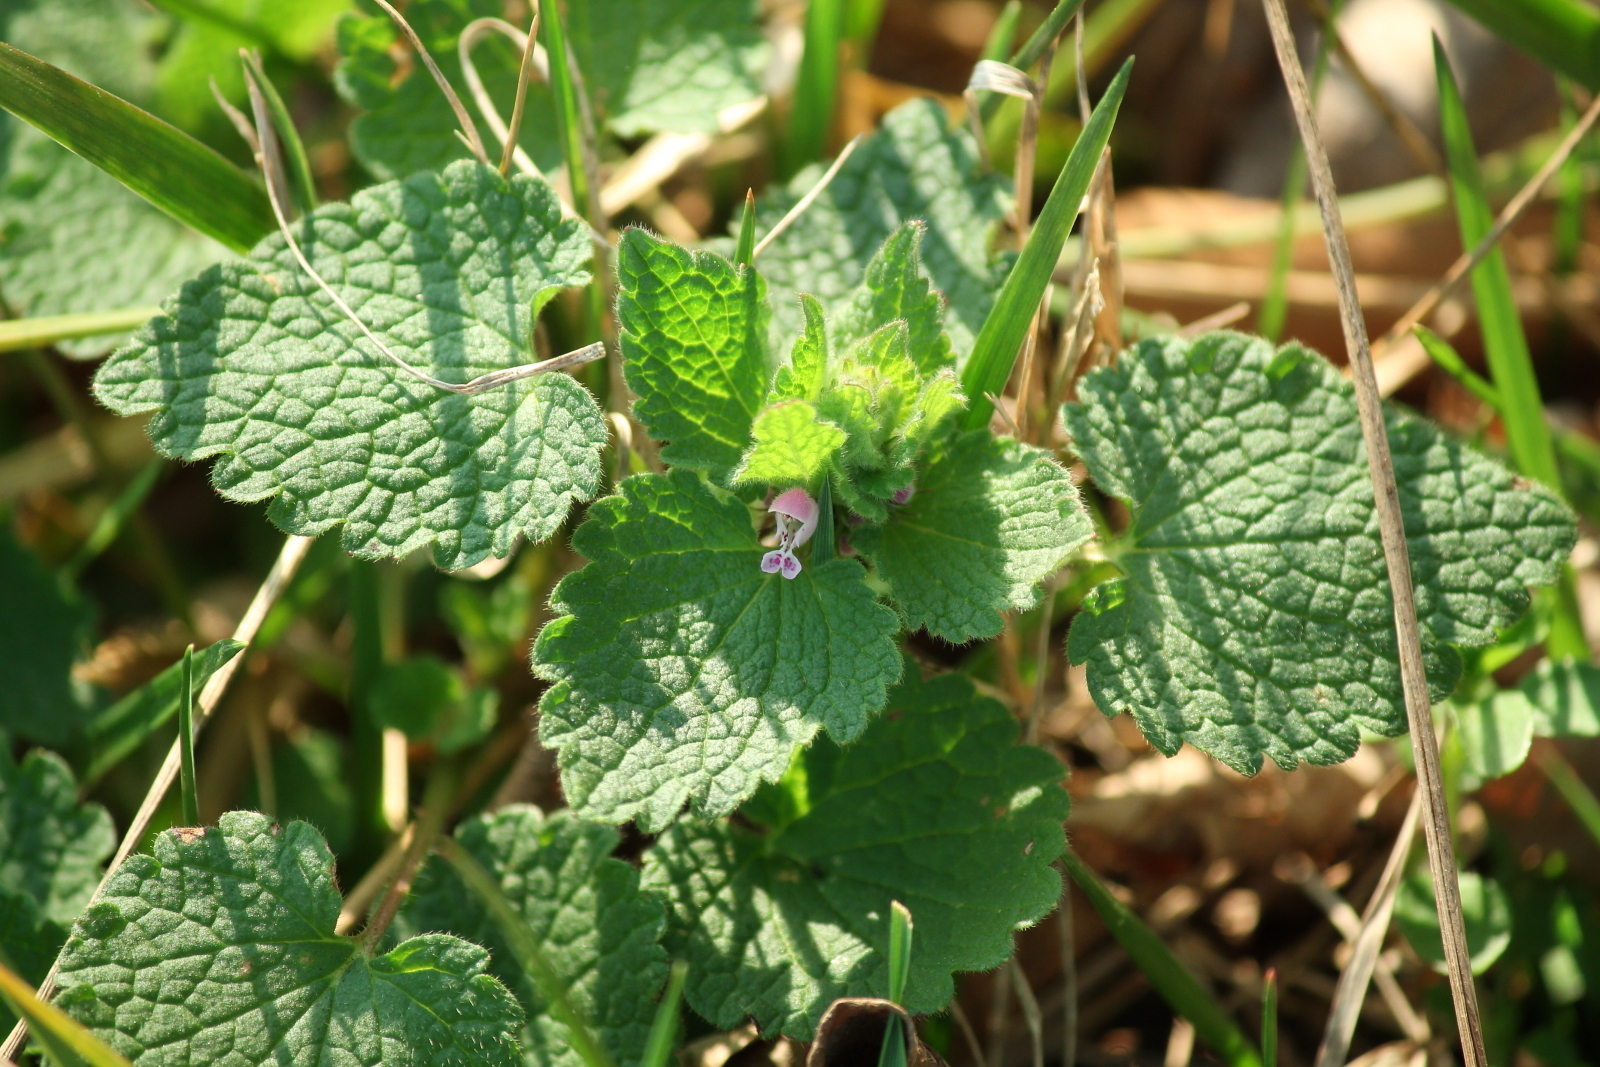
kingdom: Plantae
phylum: Tracheophyta
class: Magnoliopsida
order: Lamiales
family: Lamiaceae
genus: Lamium
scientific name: Lamium purpureum
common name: Red dead-nettle
